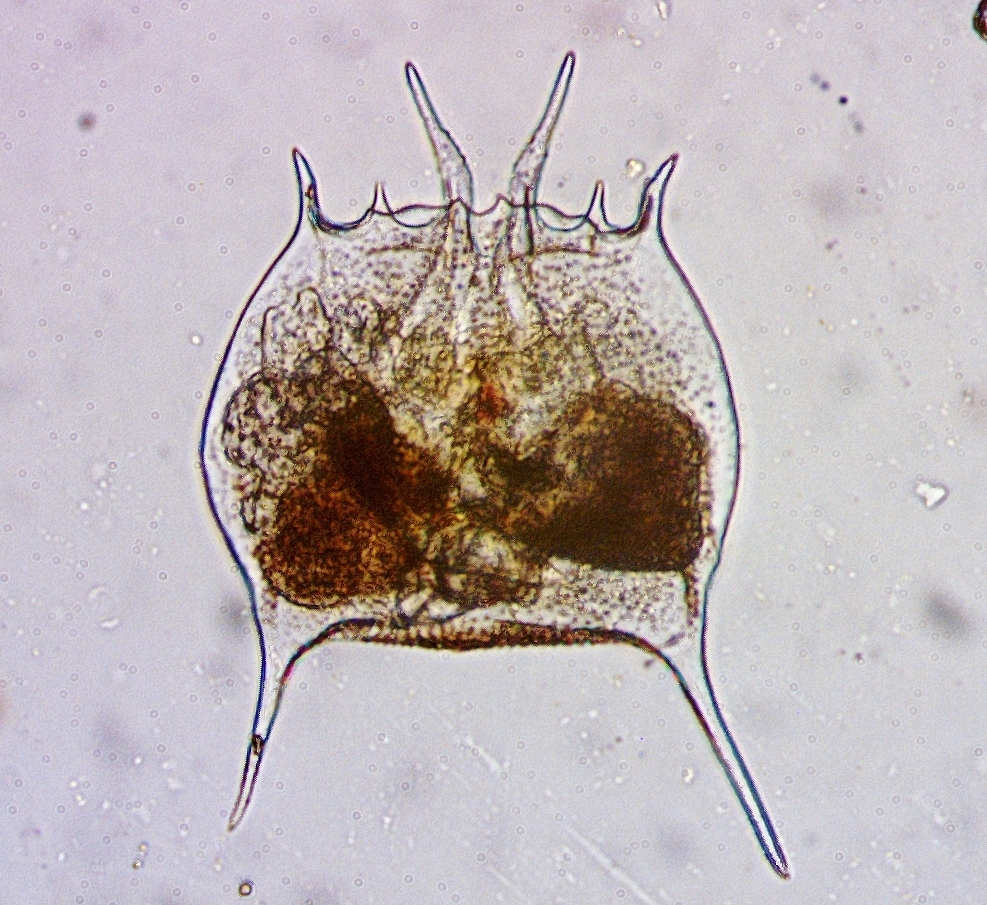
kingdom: Animalia
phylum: Rotifera
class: Eurotatoria
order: Ploima
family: Brachionidae
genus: Brachionus
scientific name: Brachionus quadridentatus
